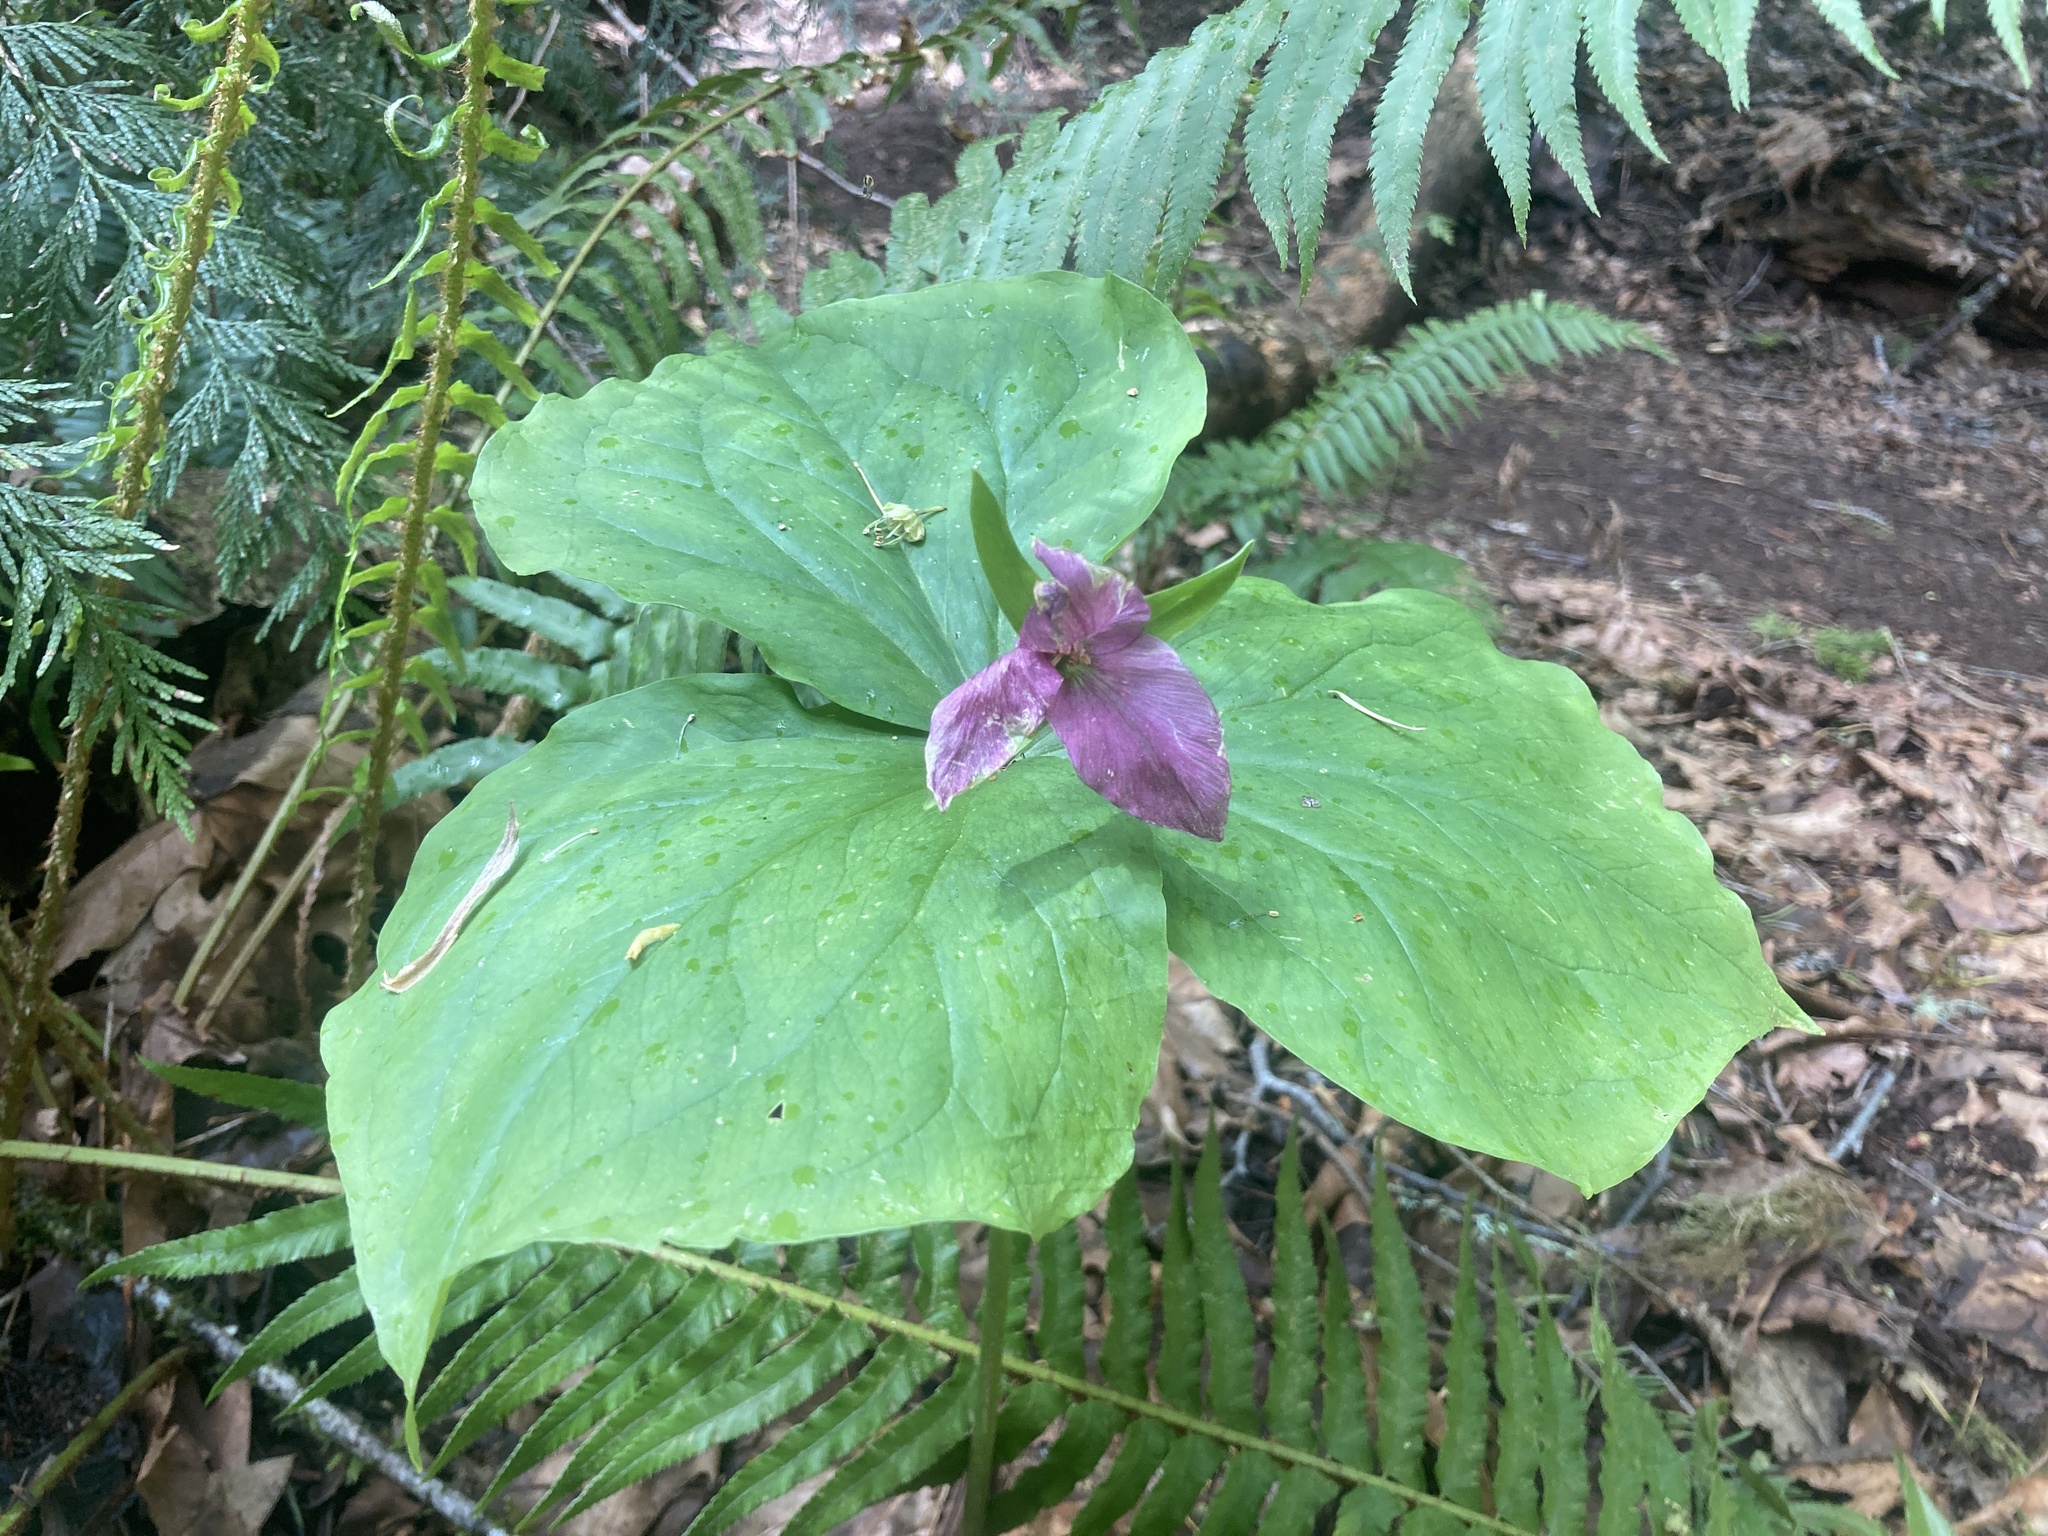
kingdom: Plantae
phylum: Tracheophyta
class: Liliopsida
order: Liliales
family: Melanthiaceae
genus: Trillium
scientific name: Trillium ovatum
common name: Pacific trillium
